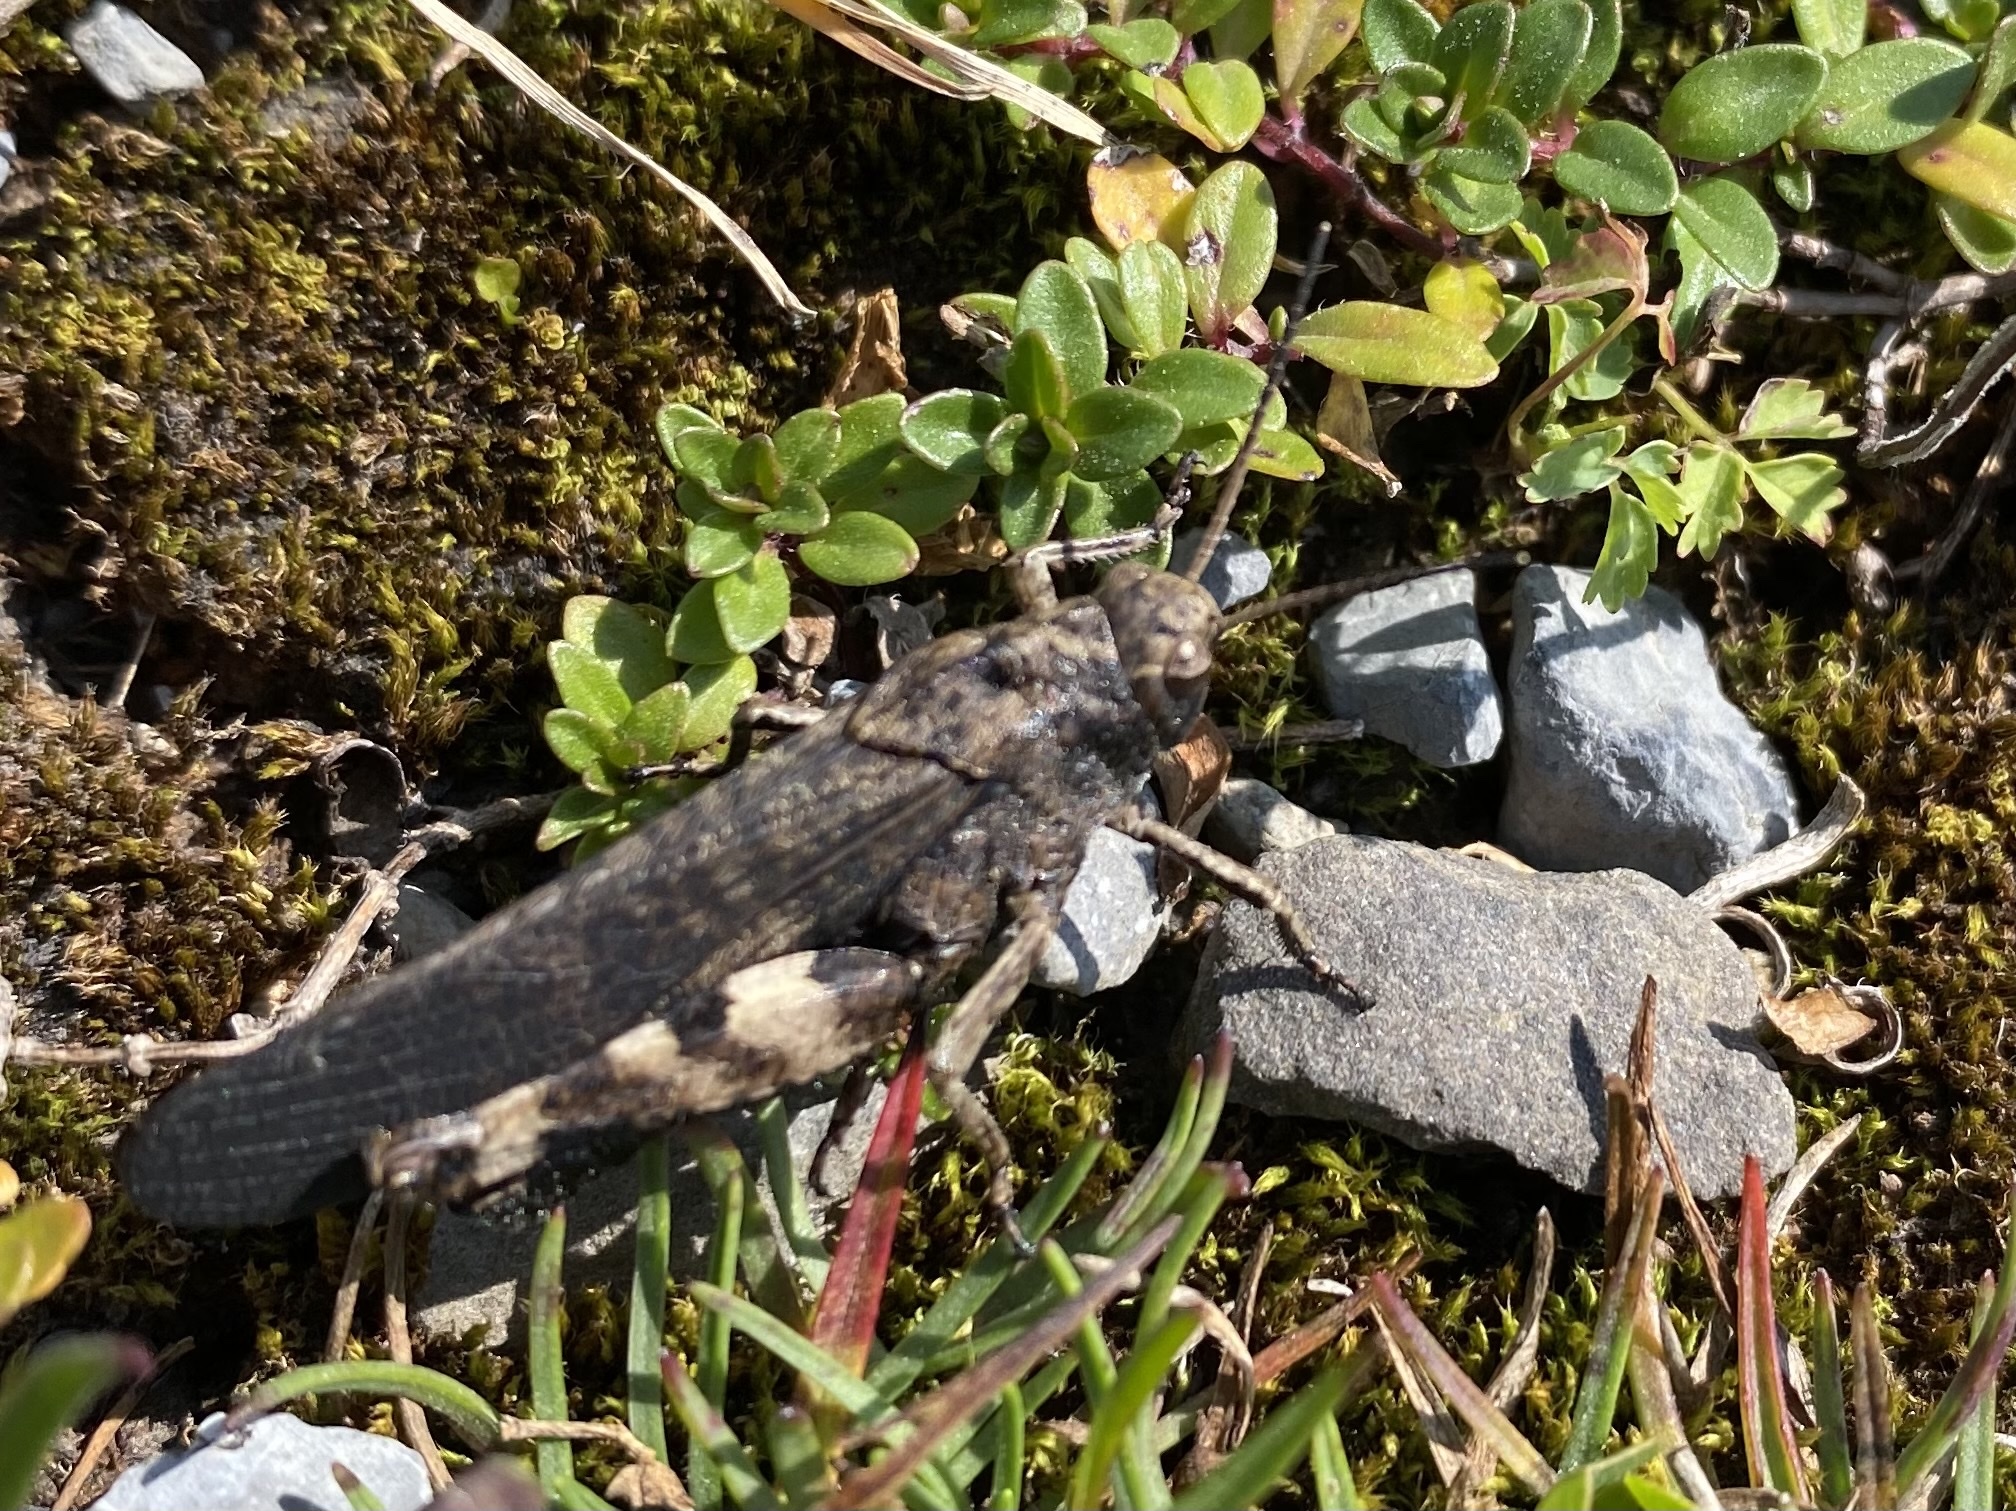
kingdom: Animalia
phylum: Arthropoda
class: Insecta
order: Orthoptera
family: Acrididae
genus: Psophus
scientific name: Psophus stridulus
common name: Rattle grasshopper
